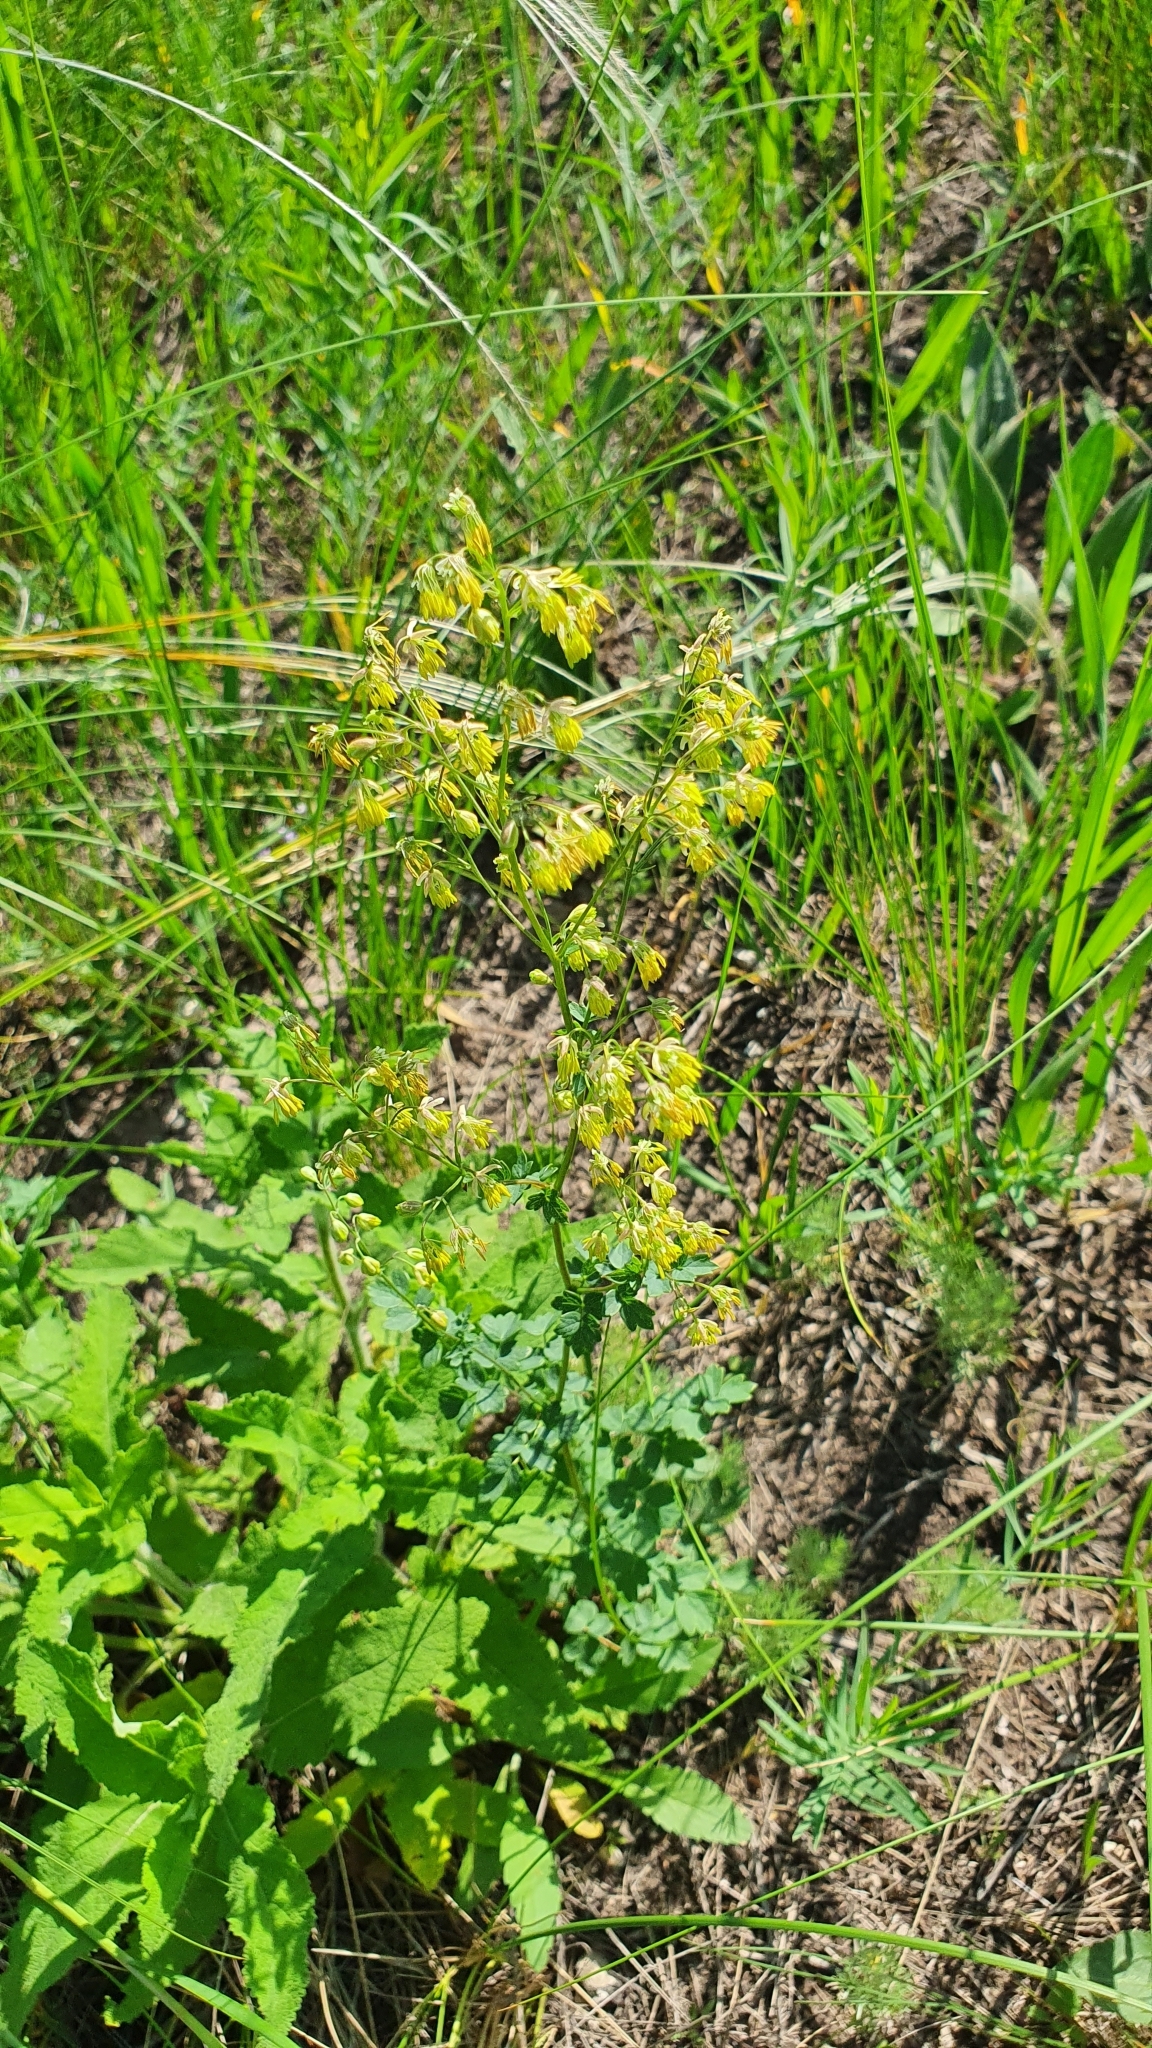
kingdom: Plantae
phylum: Tracheophyta
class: Magnoliopsida
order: Ranunculales
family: Ranunculaceae
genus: Thalictrum
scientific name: Thalictrum minus
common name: Lesser meadow-rue
